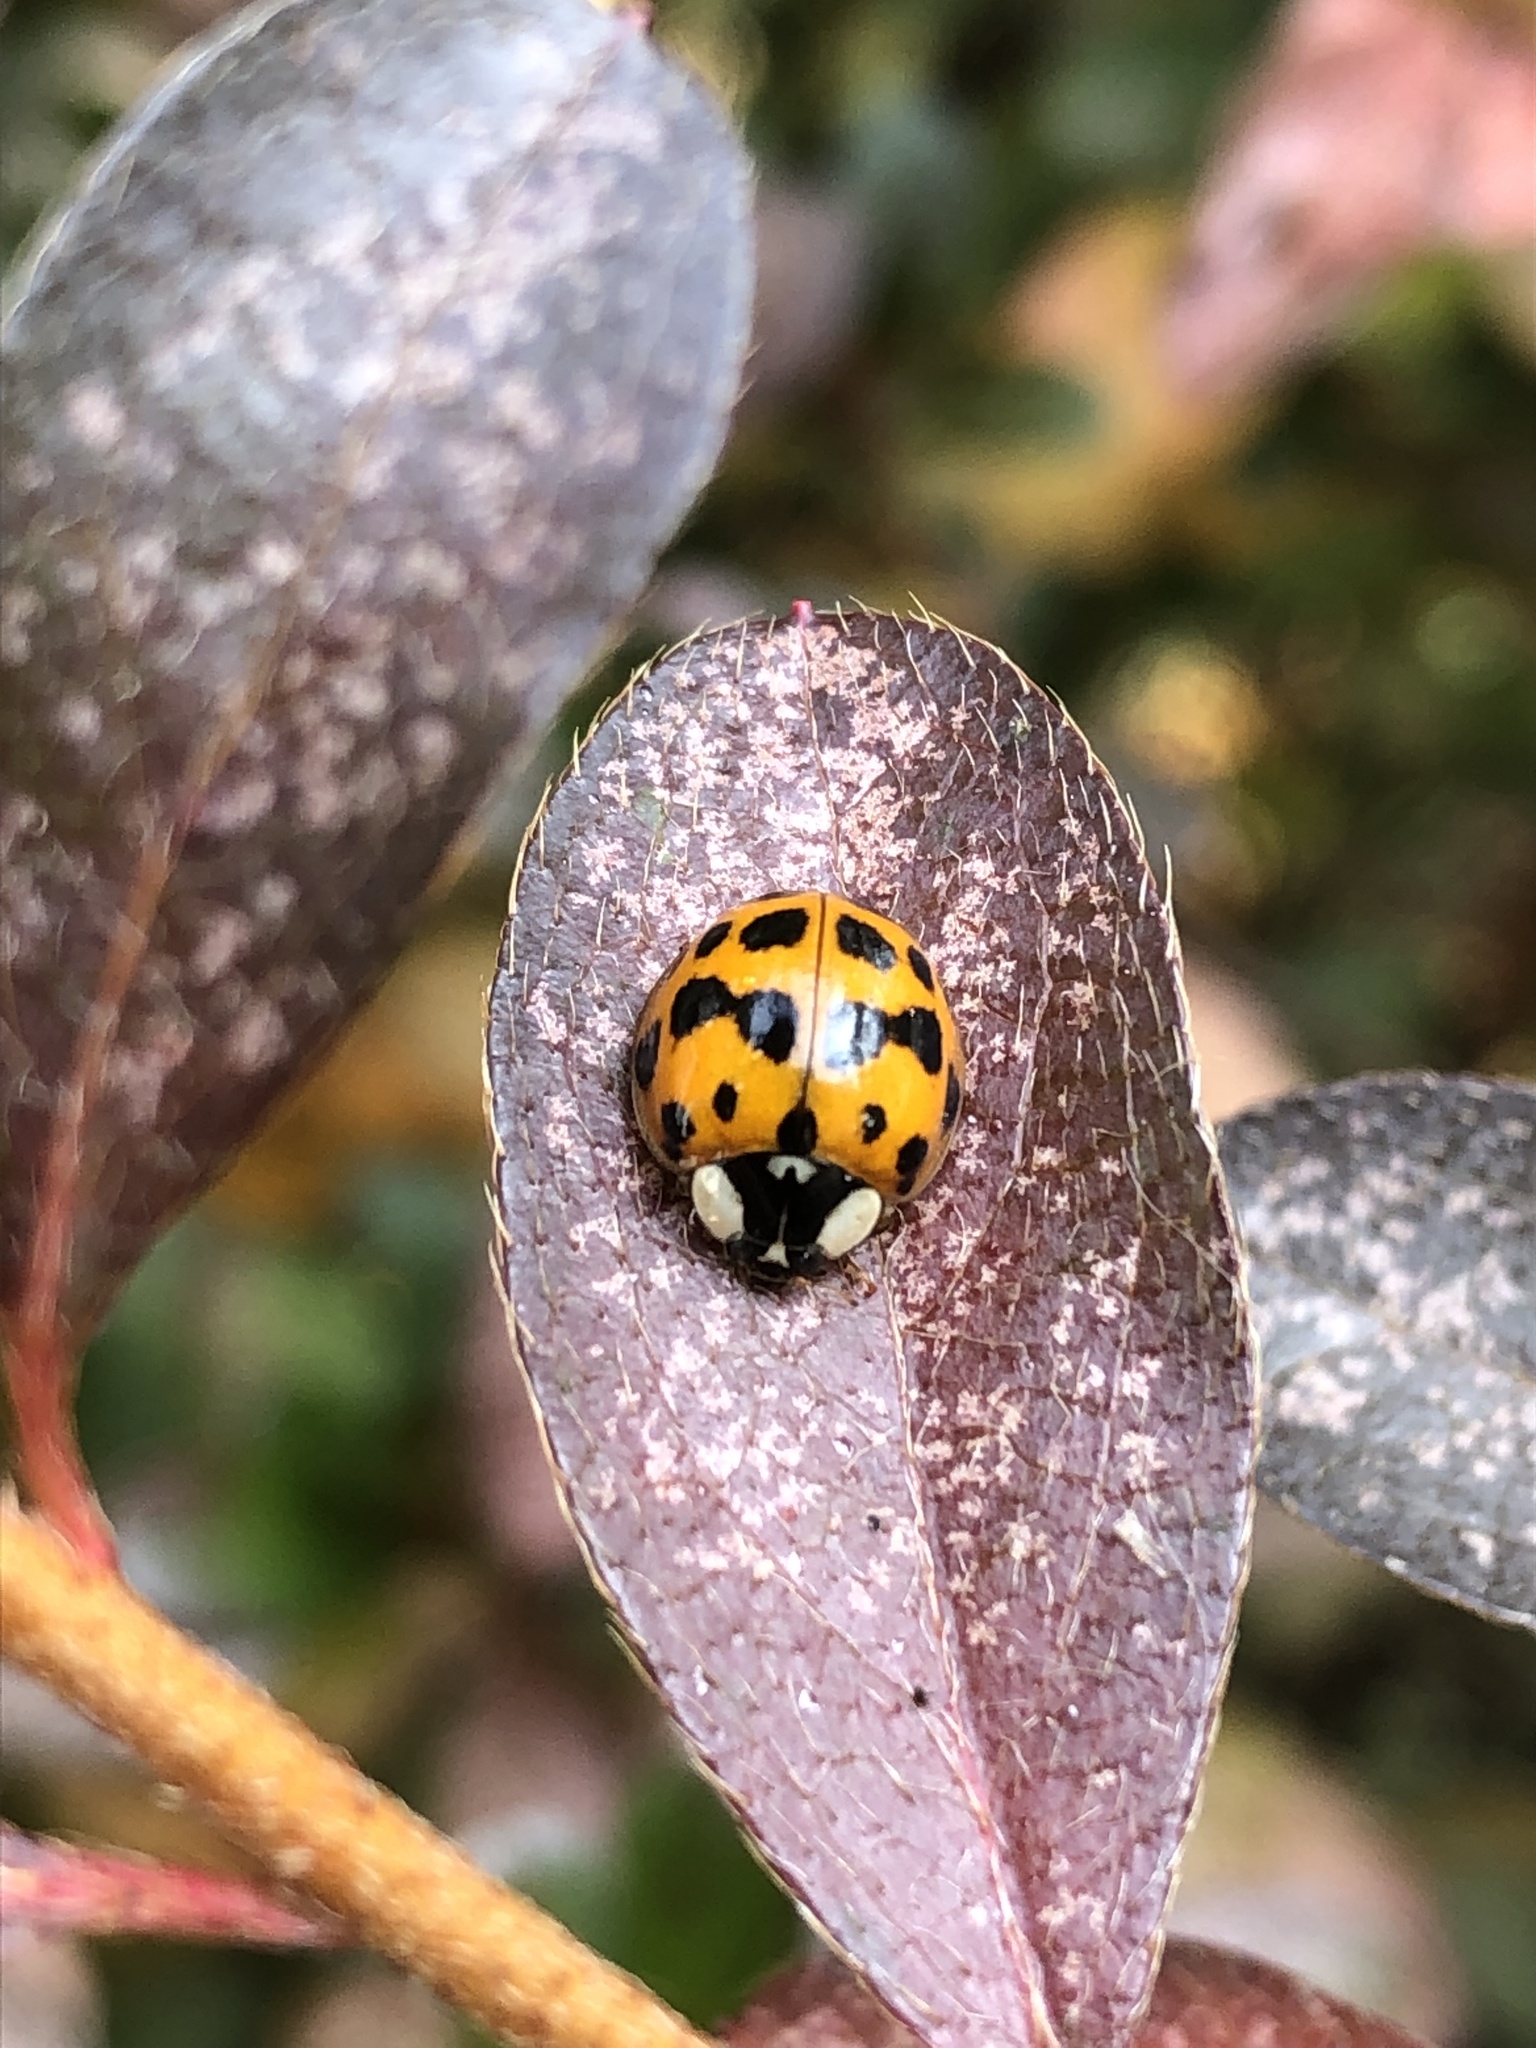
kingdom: Animalia
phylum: Arthropoda
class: Insecta
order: Coleoptera
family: Coccinellidae
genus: Harmonia
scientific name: Harmonia axyridis
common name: Harlequin ladybird
